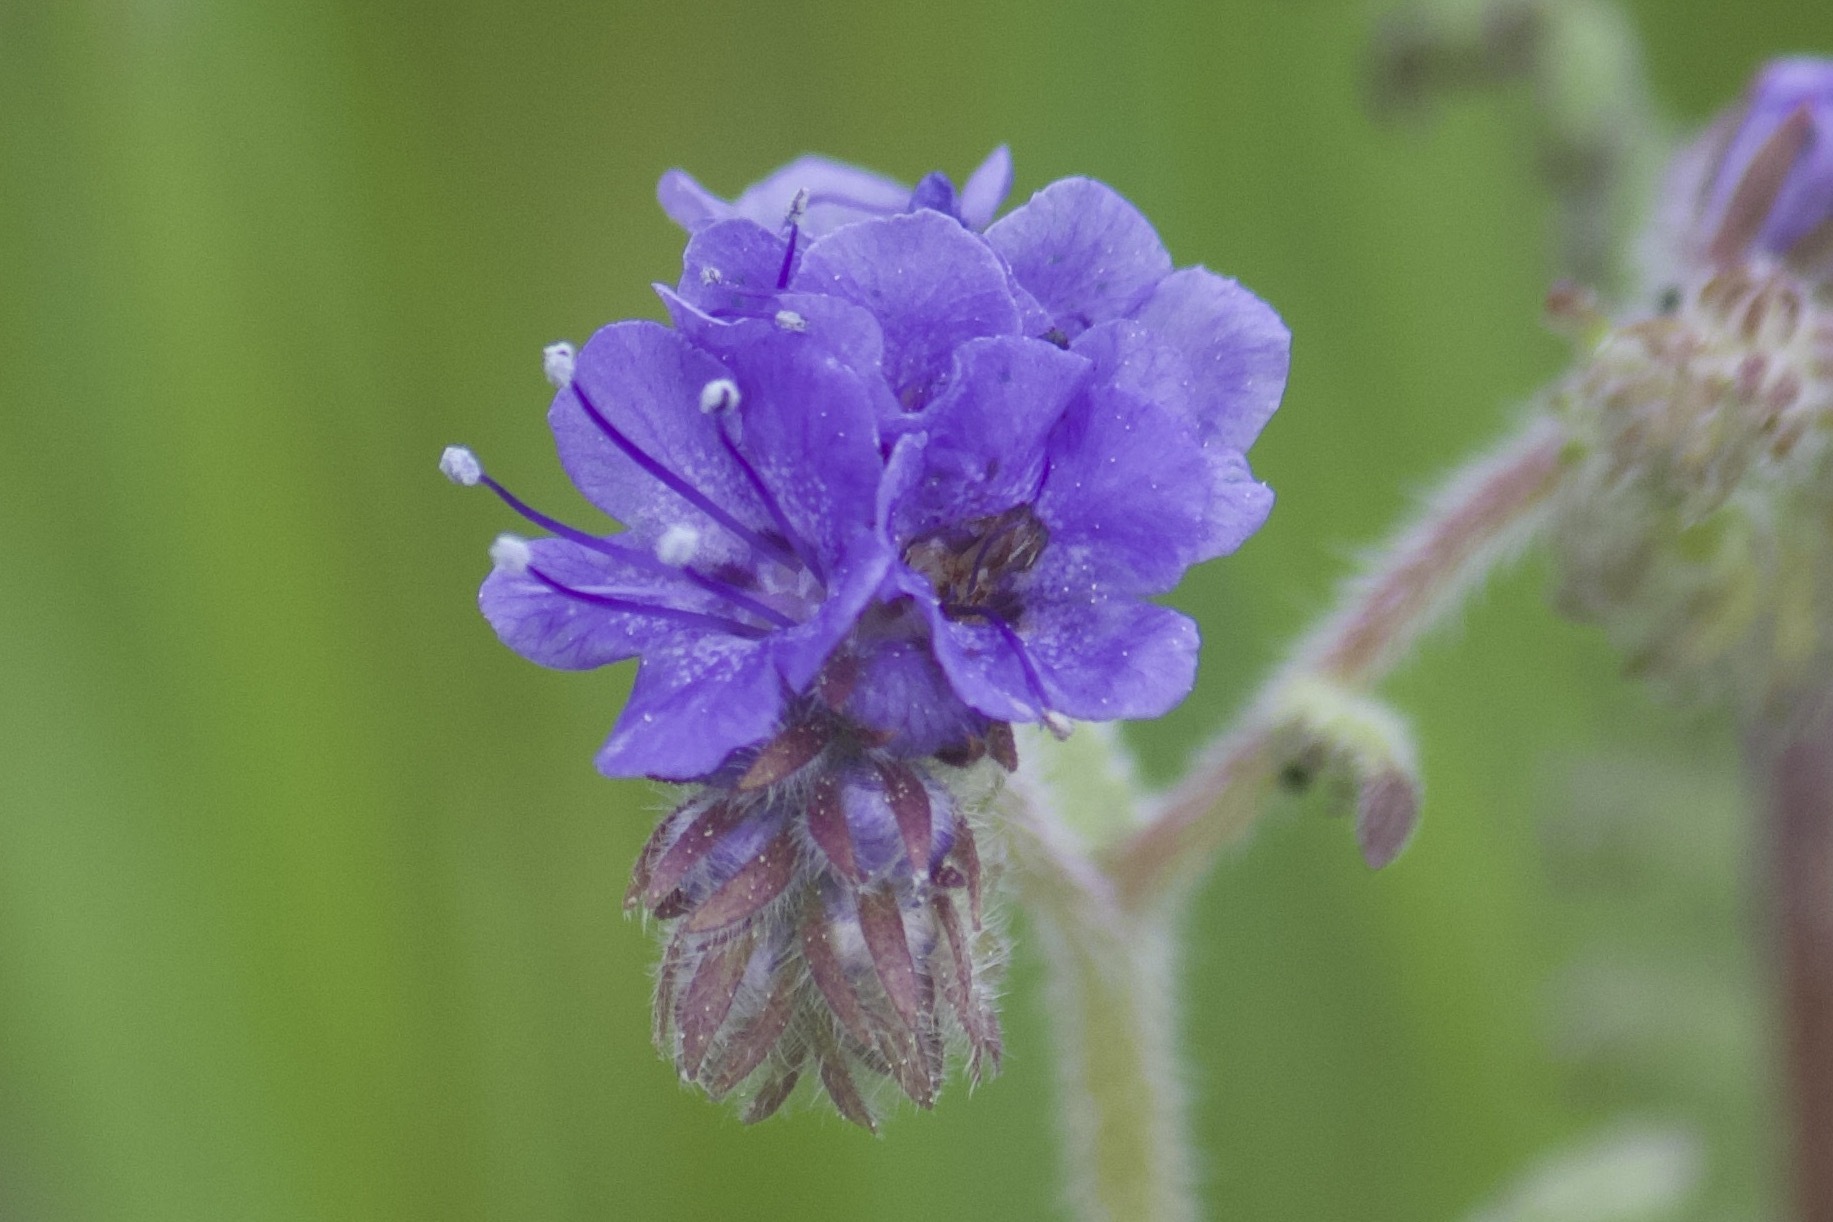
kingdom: Plantae
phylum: Tracheophyta
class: Magnoliopsida
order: Boraginales
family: Hydrophyllaceae
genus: Phacelia
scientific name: Phacelia distans
